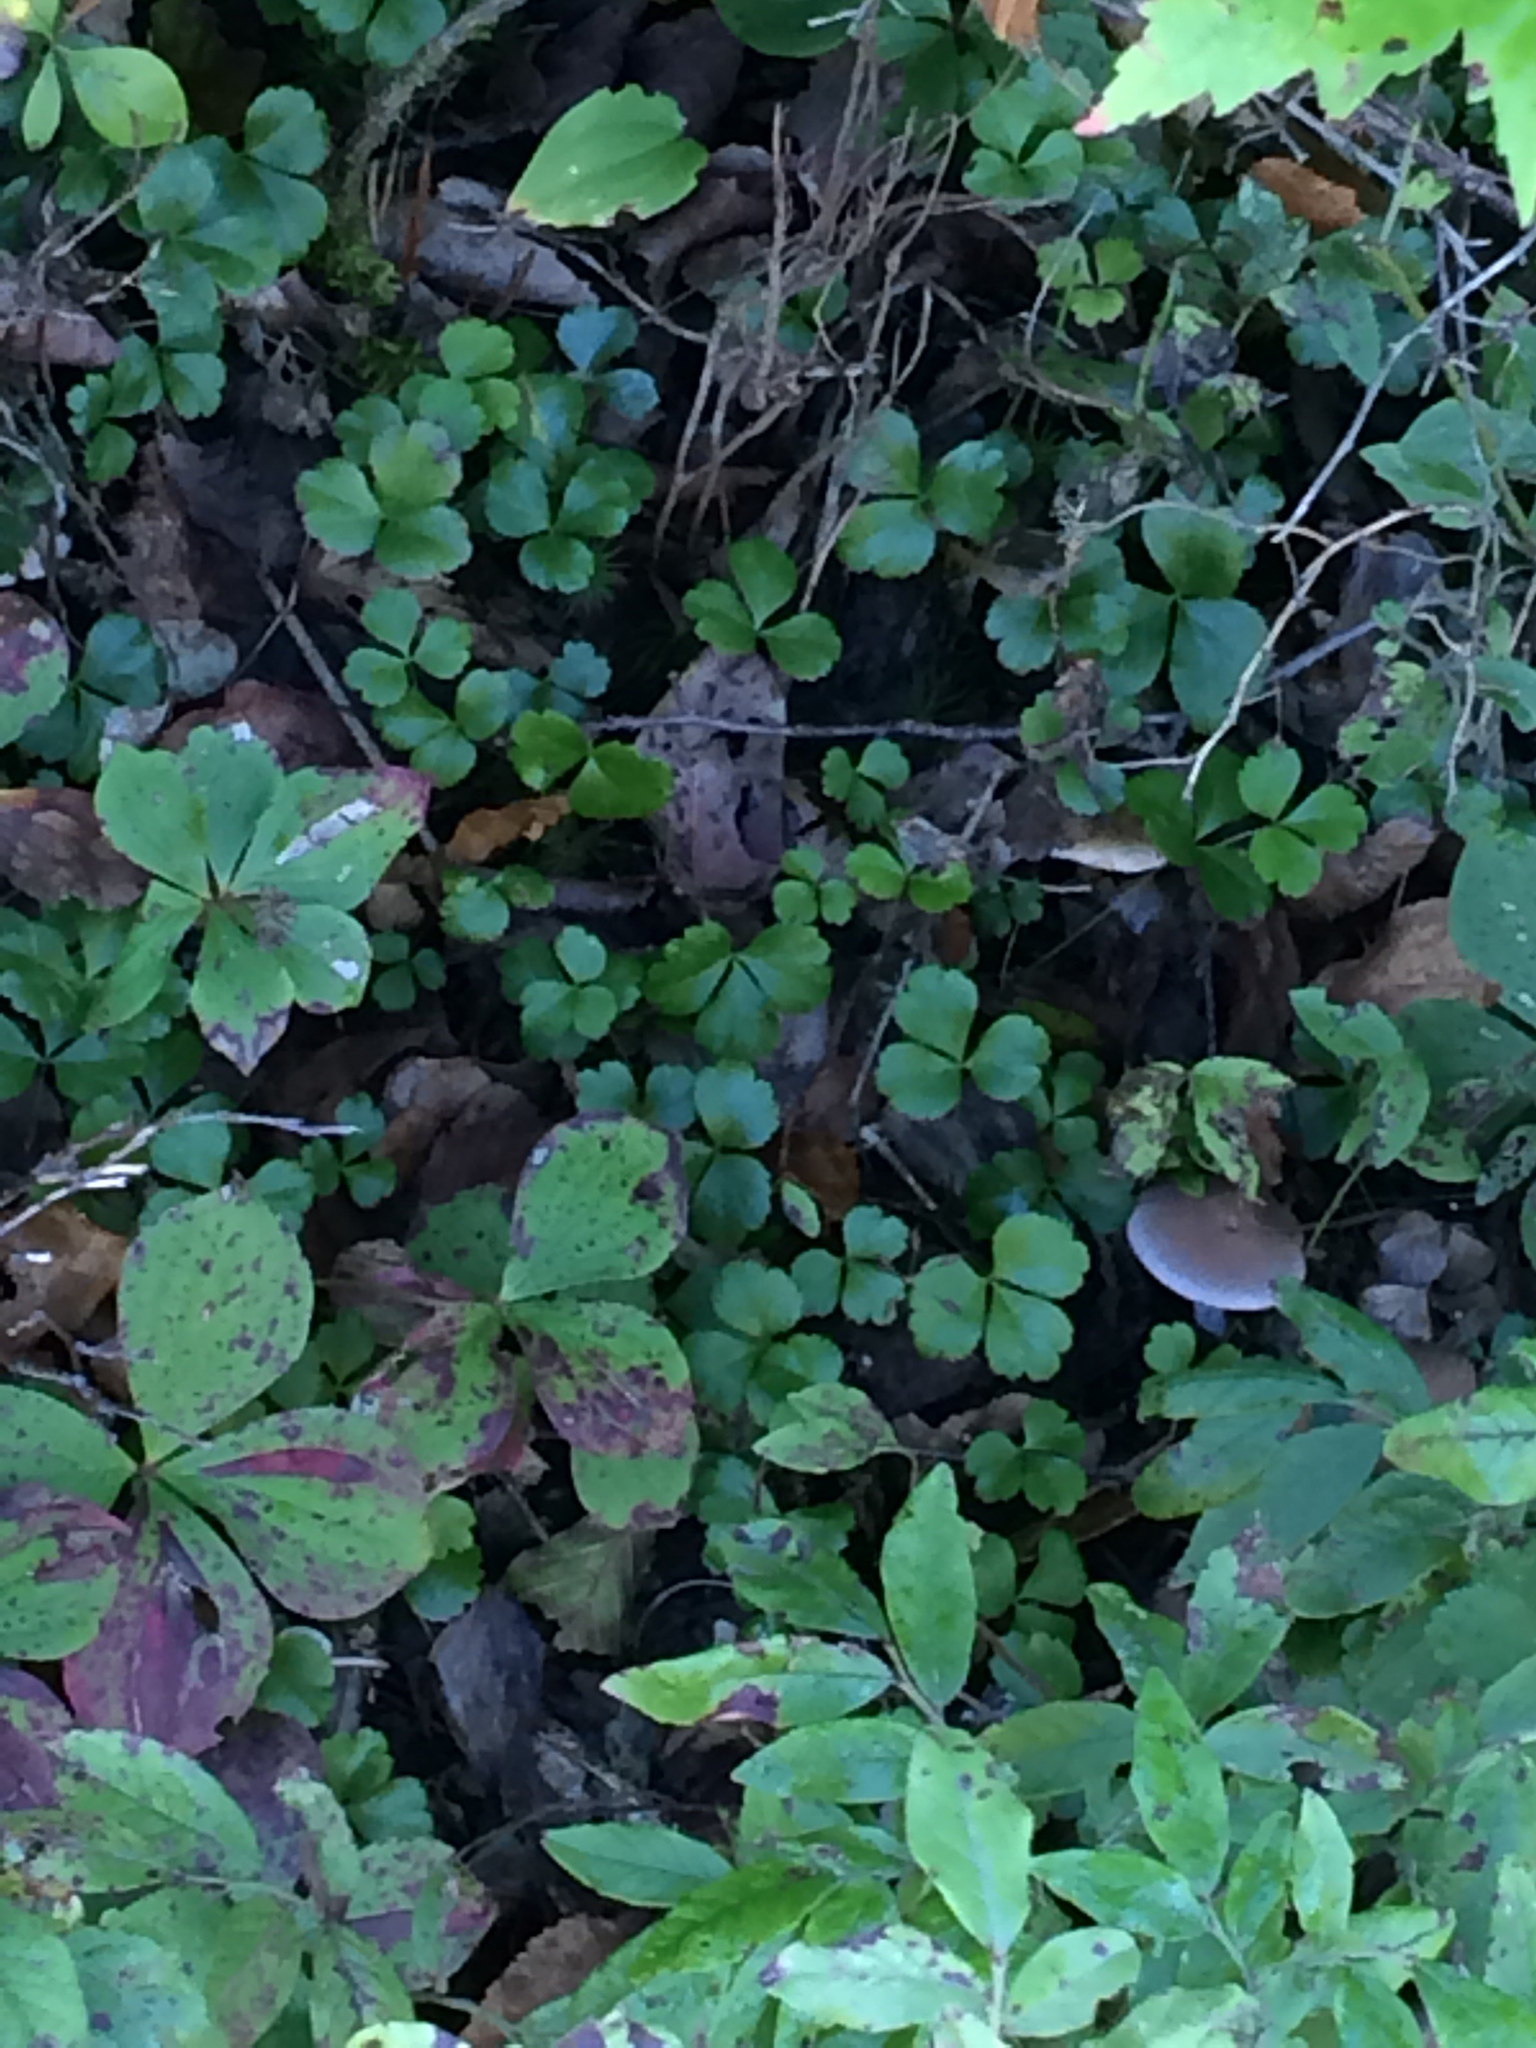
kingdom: Plantae
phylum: Tracheophyta
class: Magnoliopsida
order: Ranunculales
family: Ranunculaceae
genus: Coptis
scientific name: Coptis trifolia
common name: Canker-root
